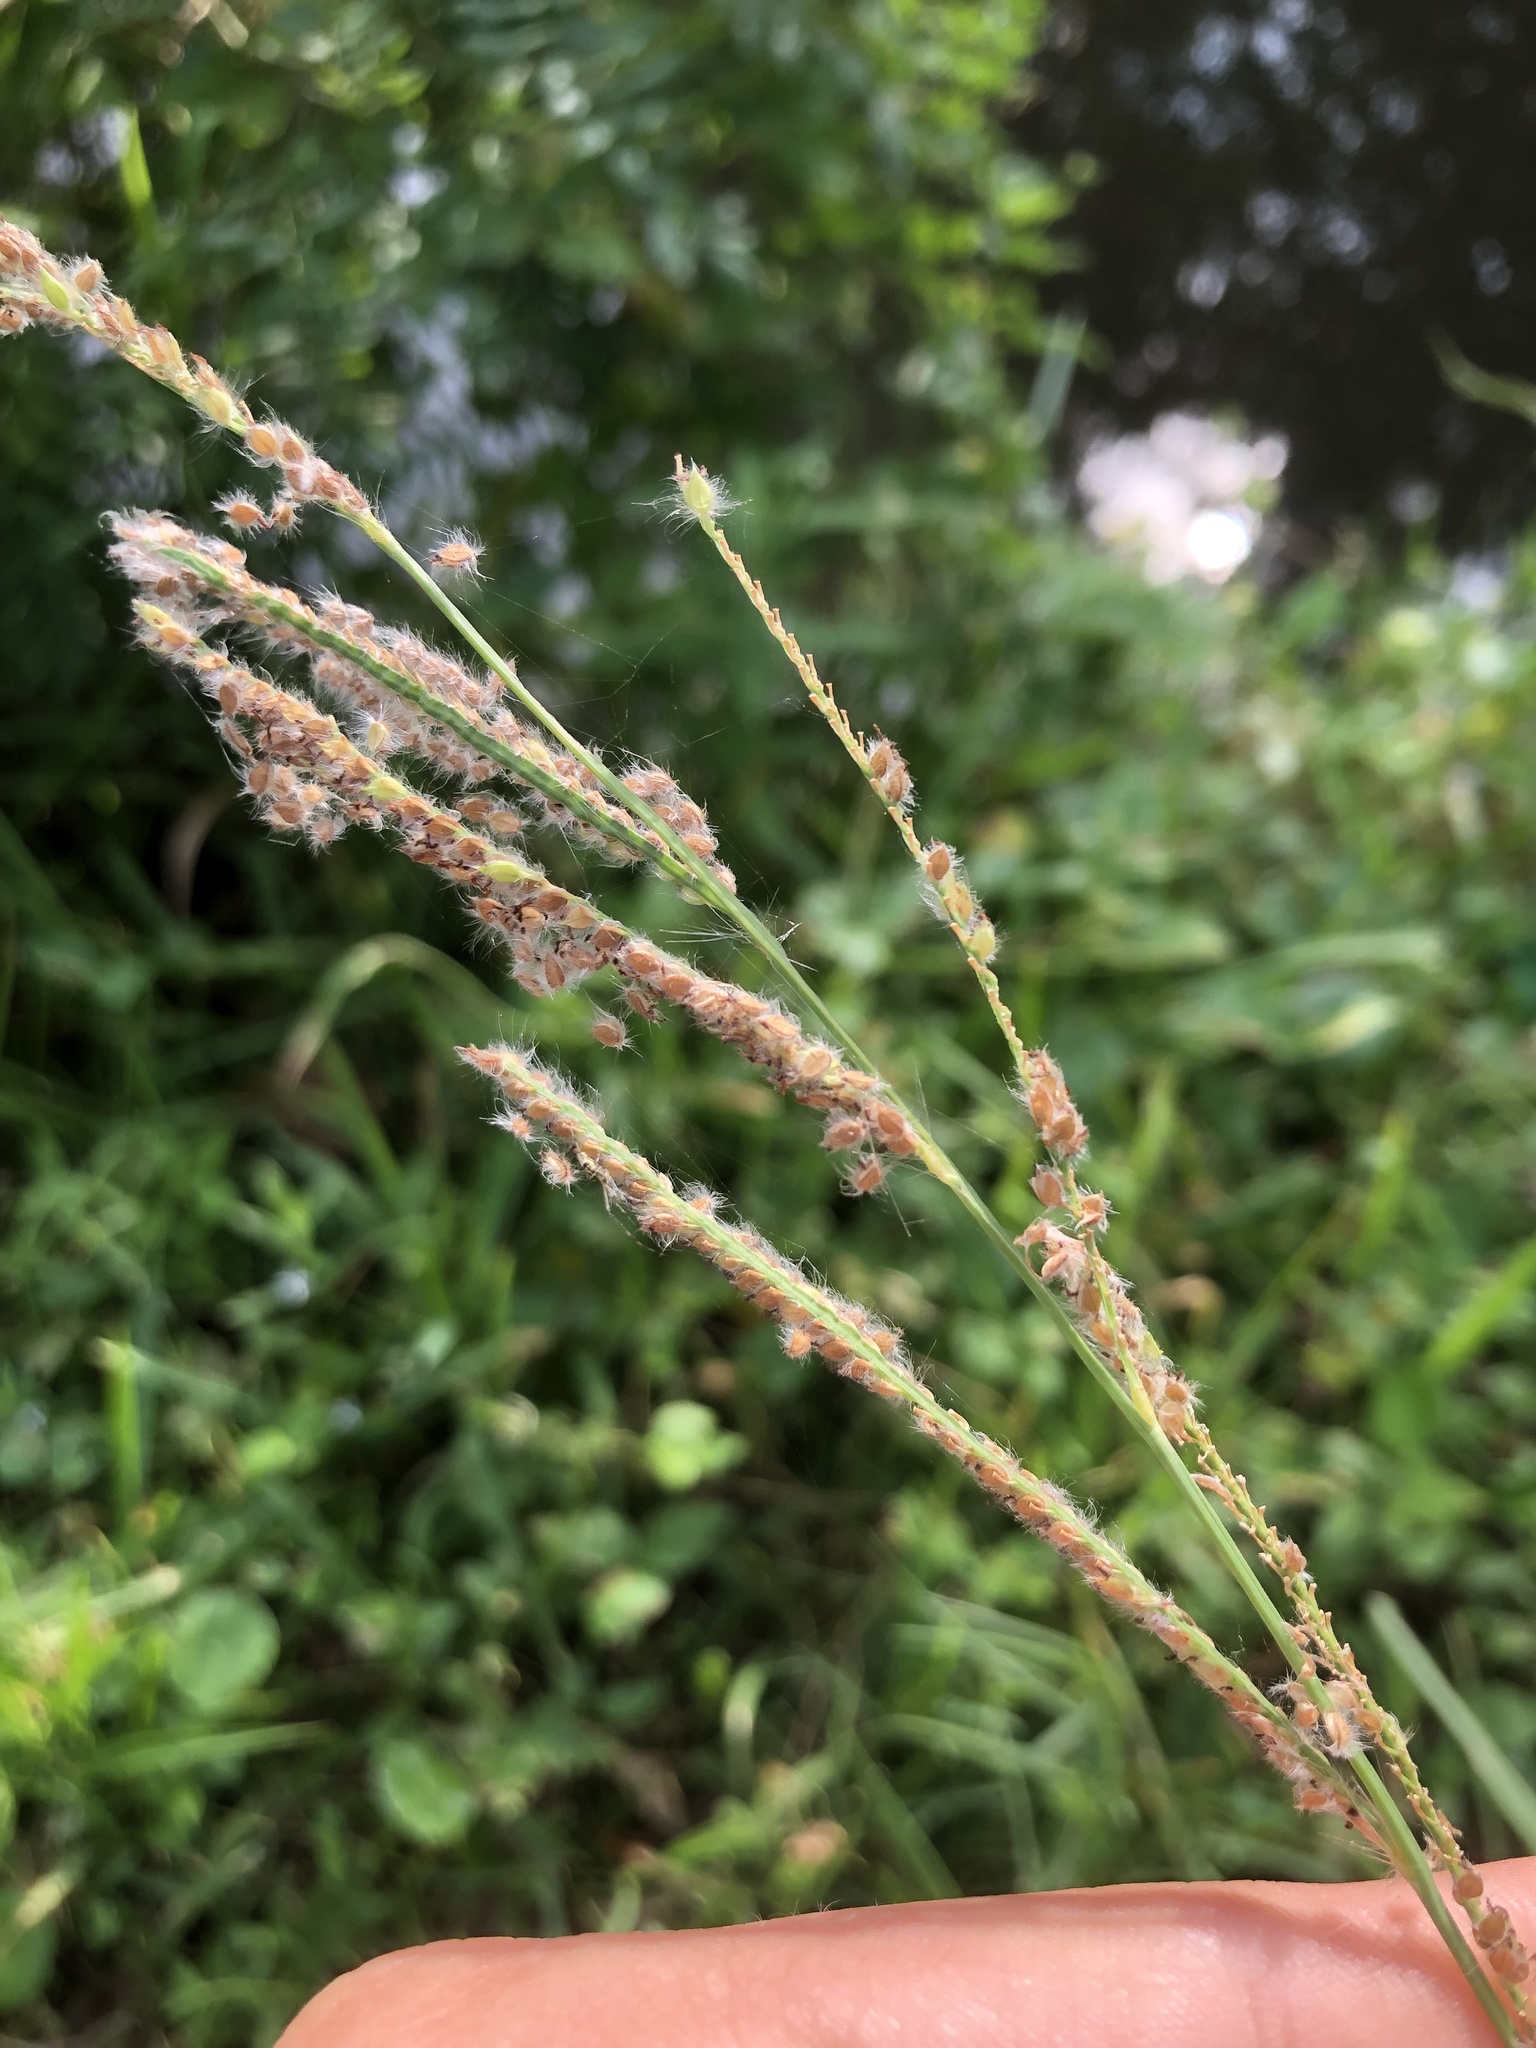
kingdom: Plantae
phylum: Tracheophyta
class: Liliopsida
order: Poales
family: Poaceae
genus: Paspalum
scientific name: Paspalum urvillei
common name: Vasey's grass
